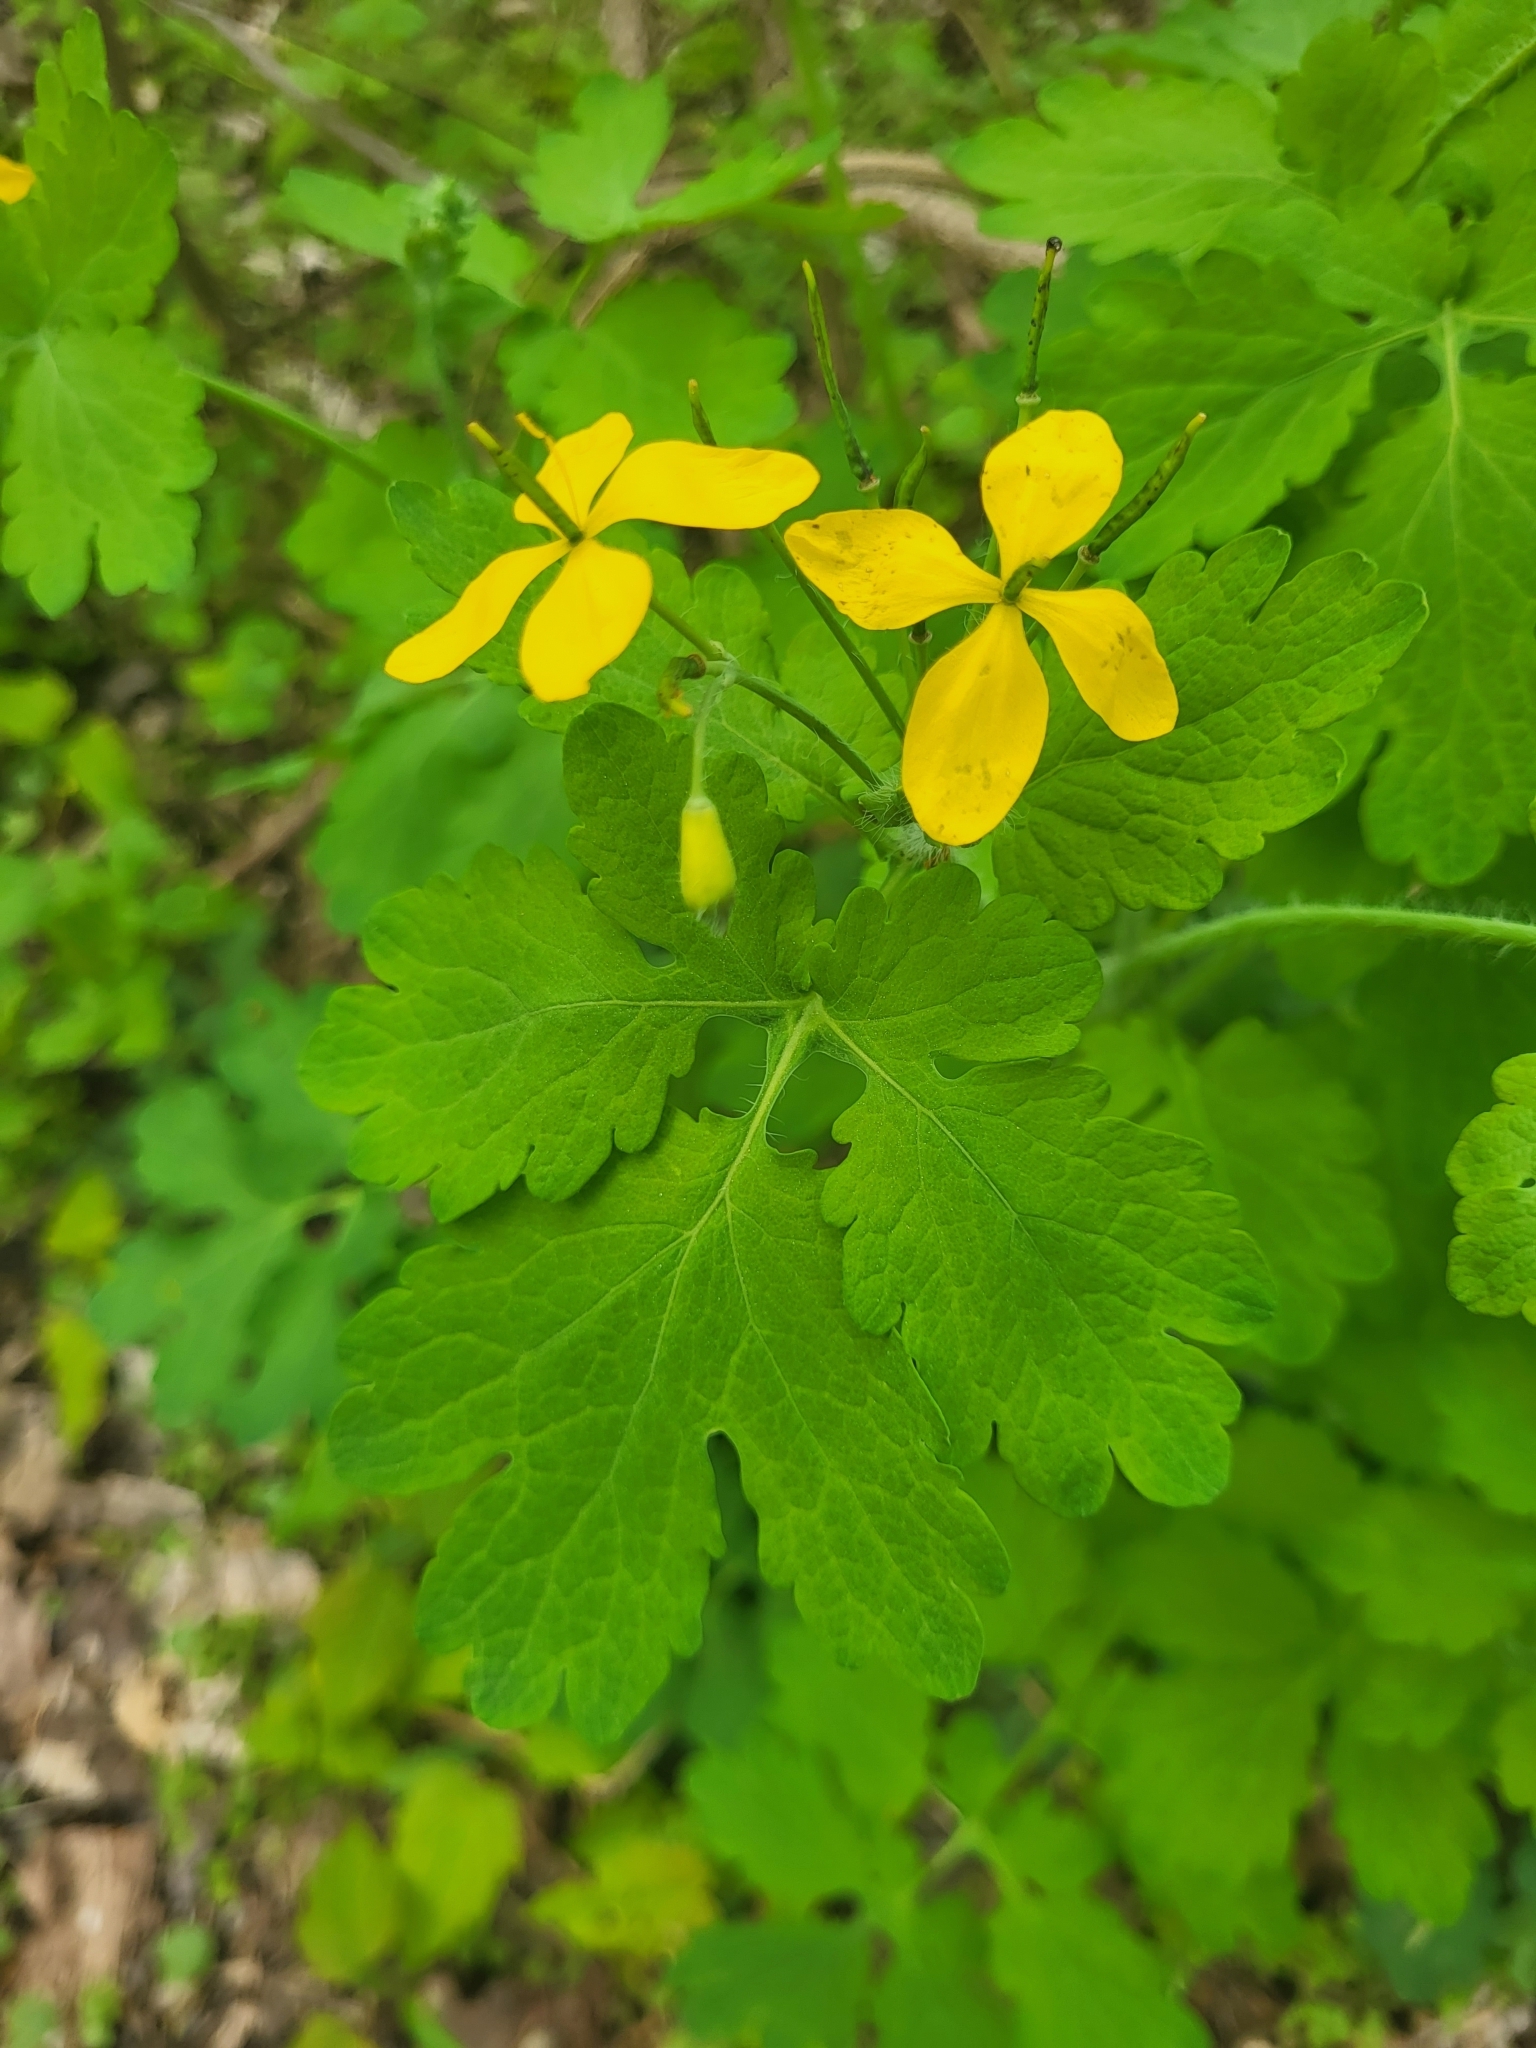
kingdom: Plantae
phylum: Tracheophyta
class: Magnoliopsida
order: Ranunculales
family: Papaveraceae
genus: Chelidonium
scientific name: Chelidonium majus
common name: Greater celandine
